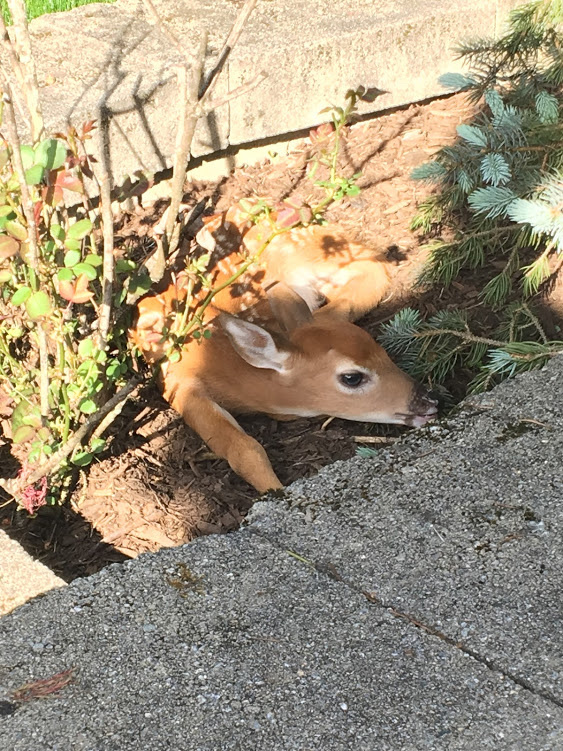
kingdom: Animalia
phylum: Chordata
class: Mammalia
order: Artiodactyla
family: Cervidae
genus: Odocoileus
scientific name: Odocoileus virginianus
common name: White-tailed deer
